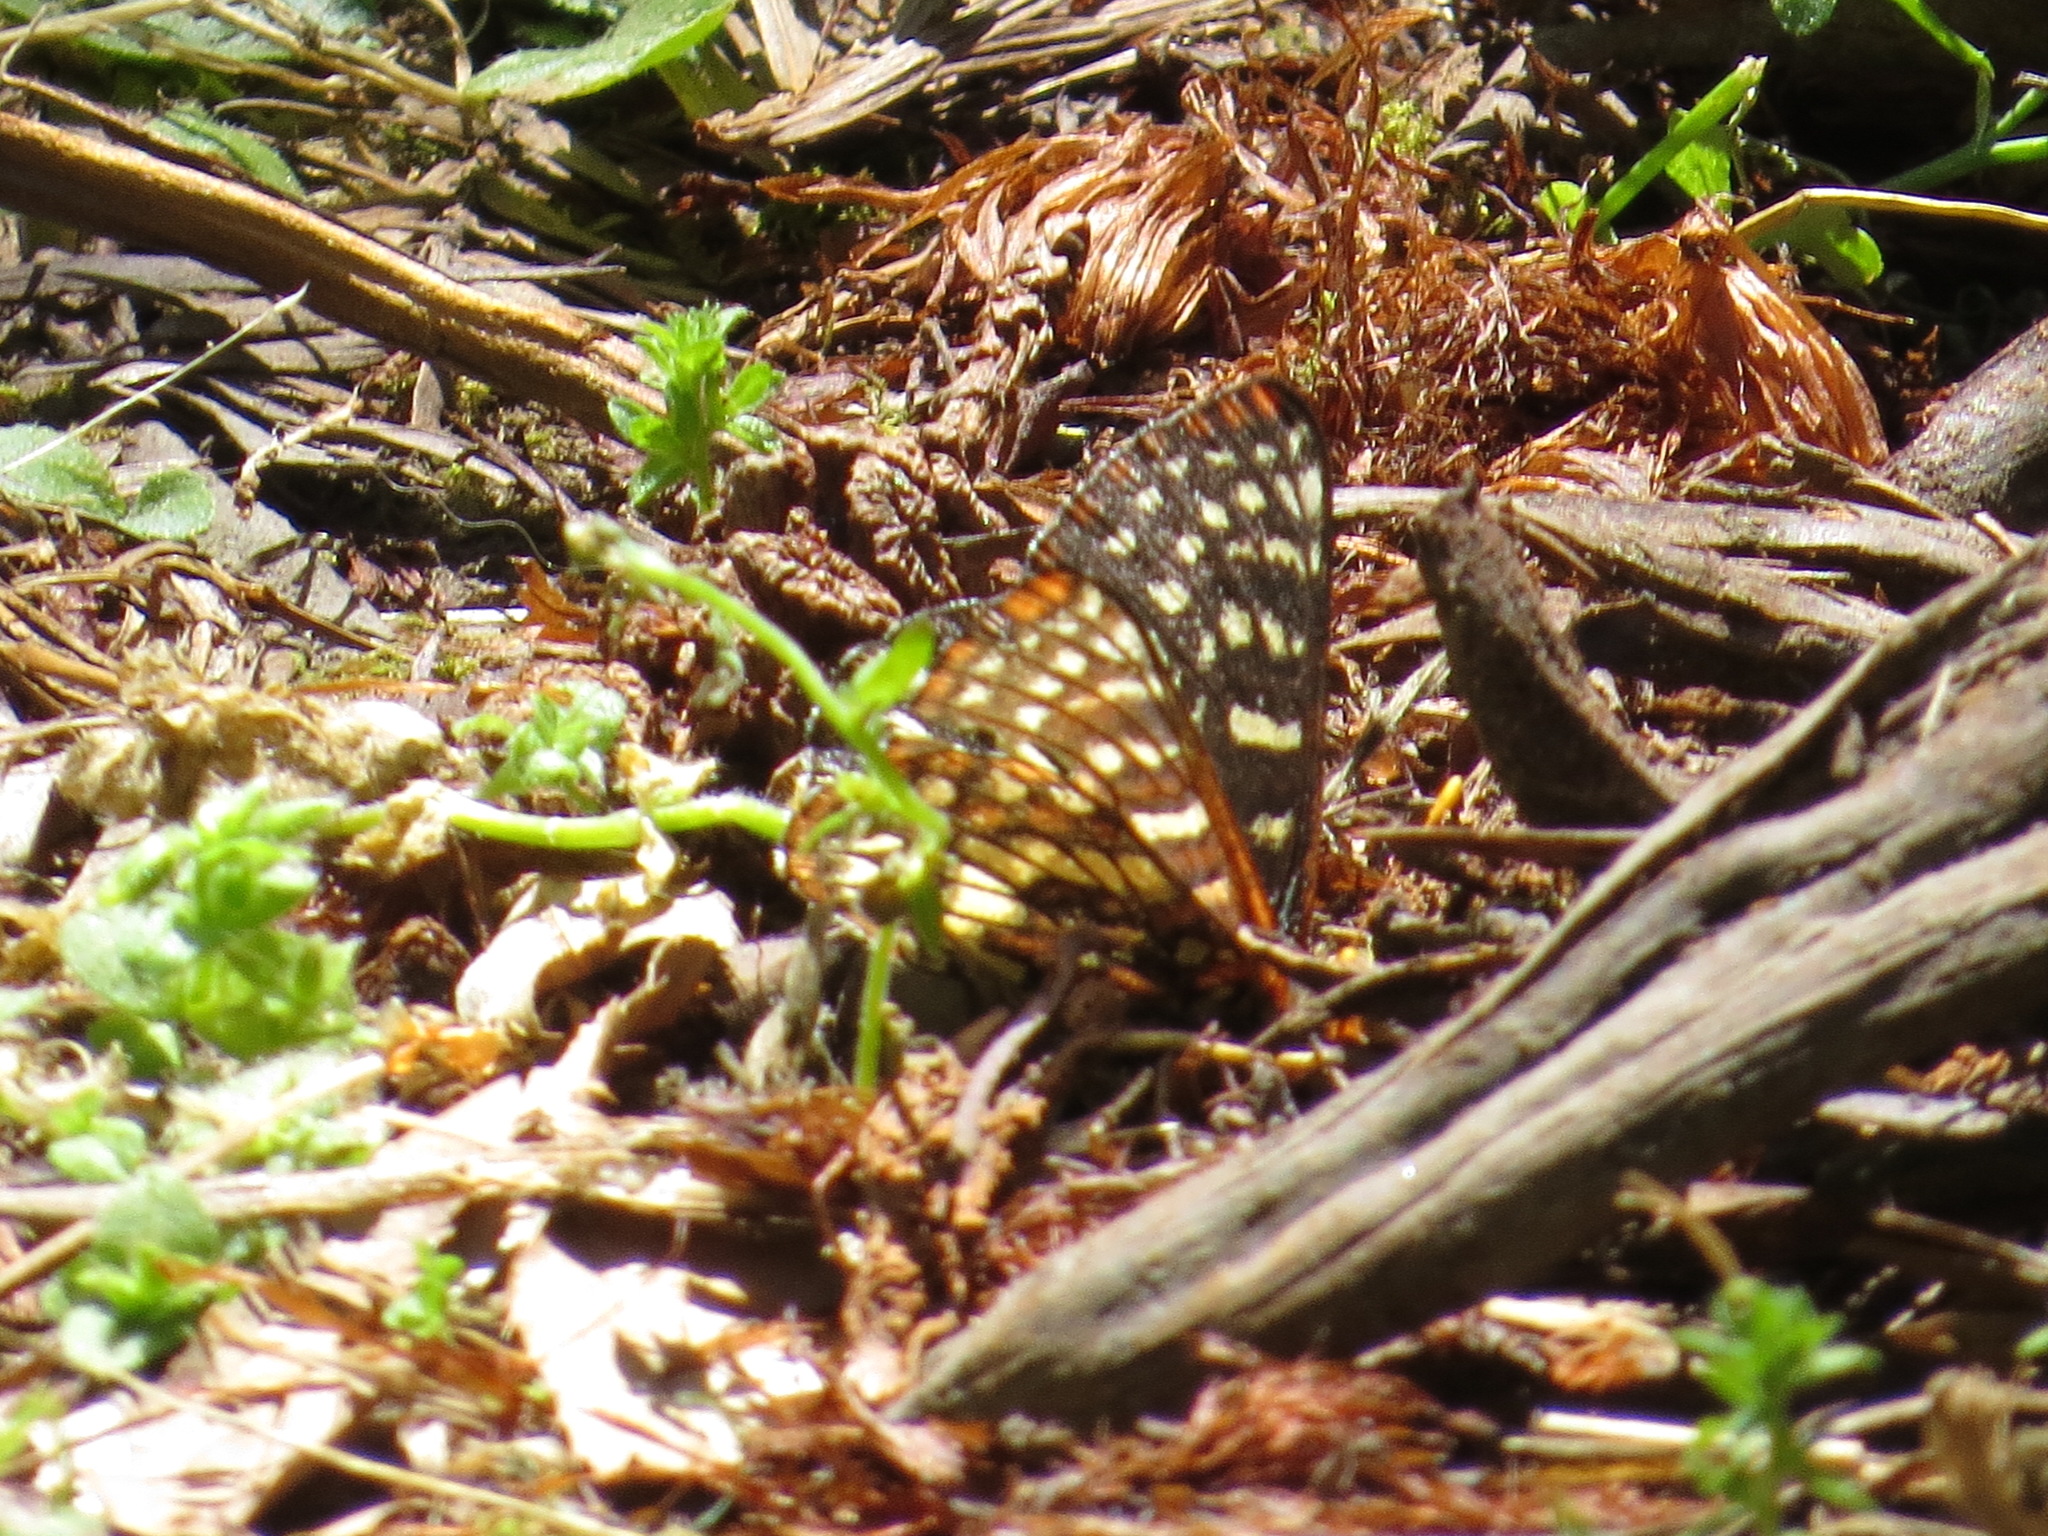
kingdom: Animalia
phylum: Arthropoda
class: Insecta
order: Lepidoptera
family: Nymphalidae
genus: Occidryas
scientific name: Occidryas chalcedona
